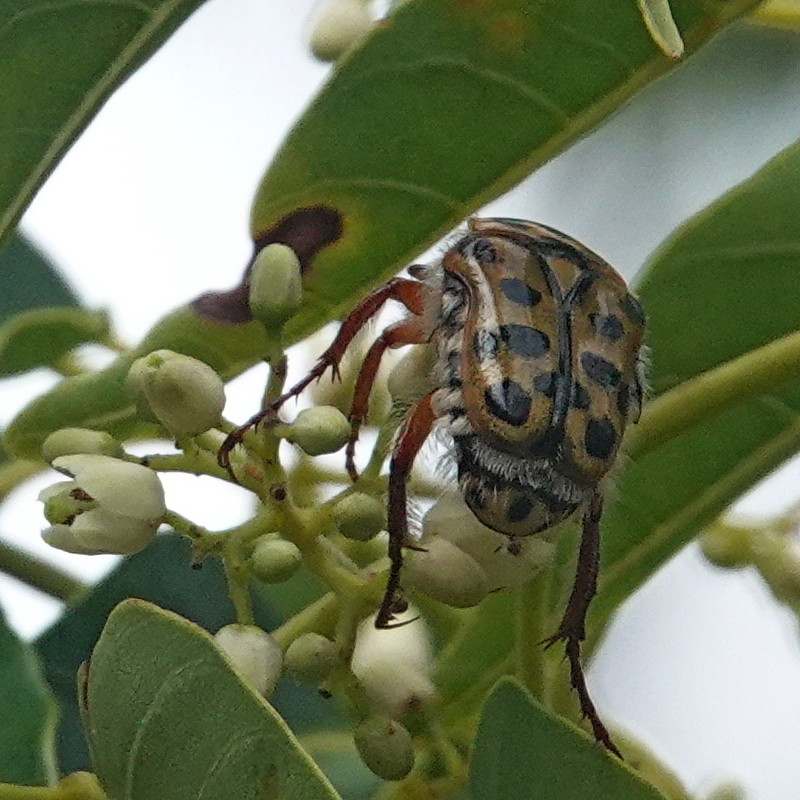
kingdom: Animalia
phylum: Arthropoda
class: Insecta
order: Coleoptera
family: Scarabaeidae
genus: Neorrhina
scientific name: Neorrhina punctatum
